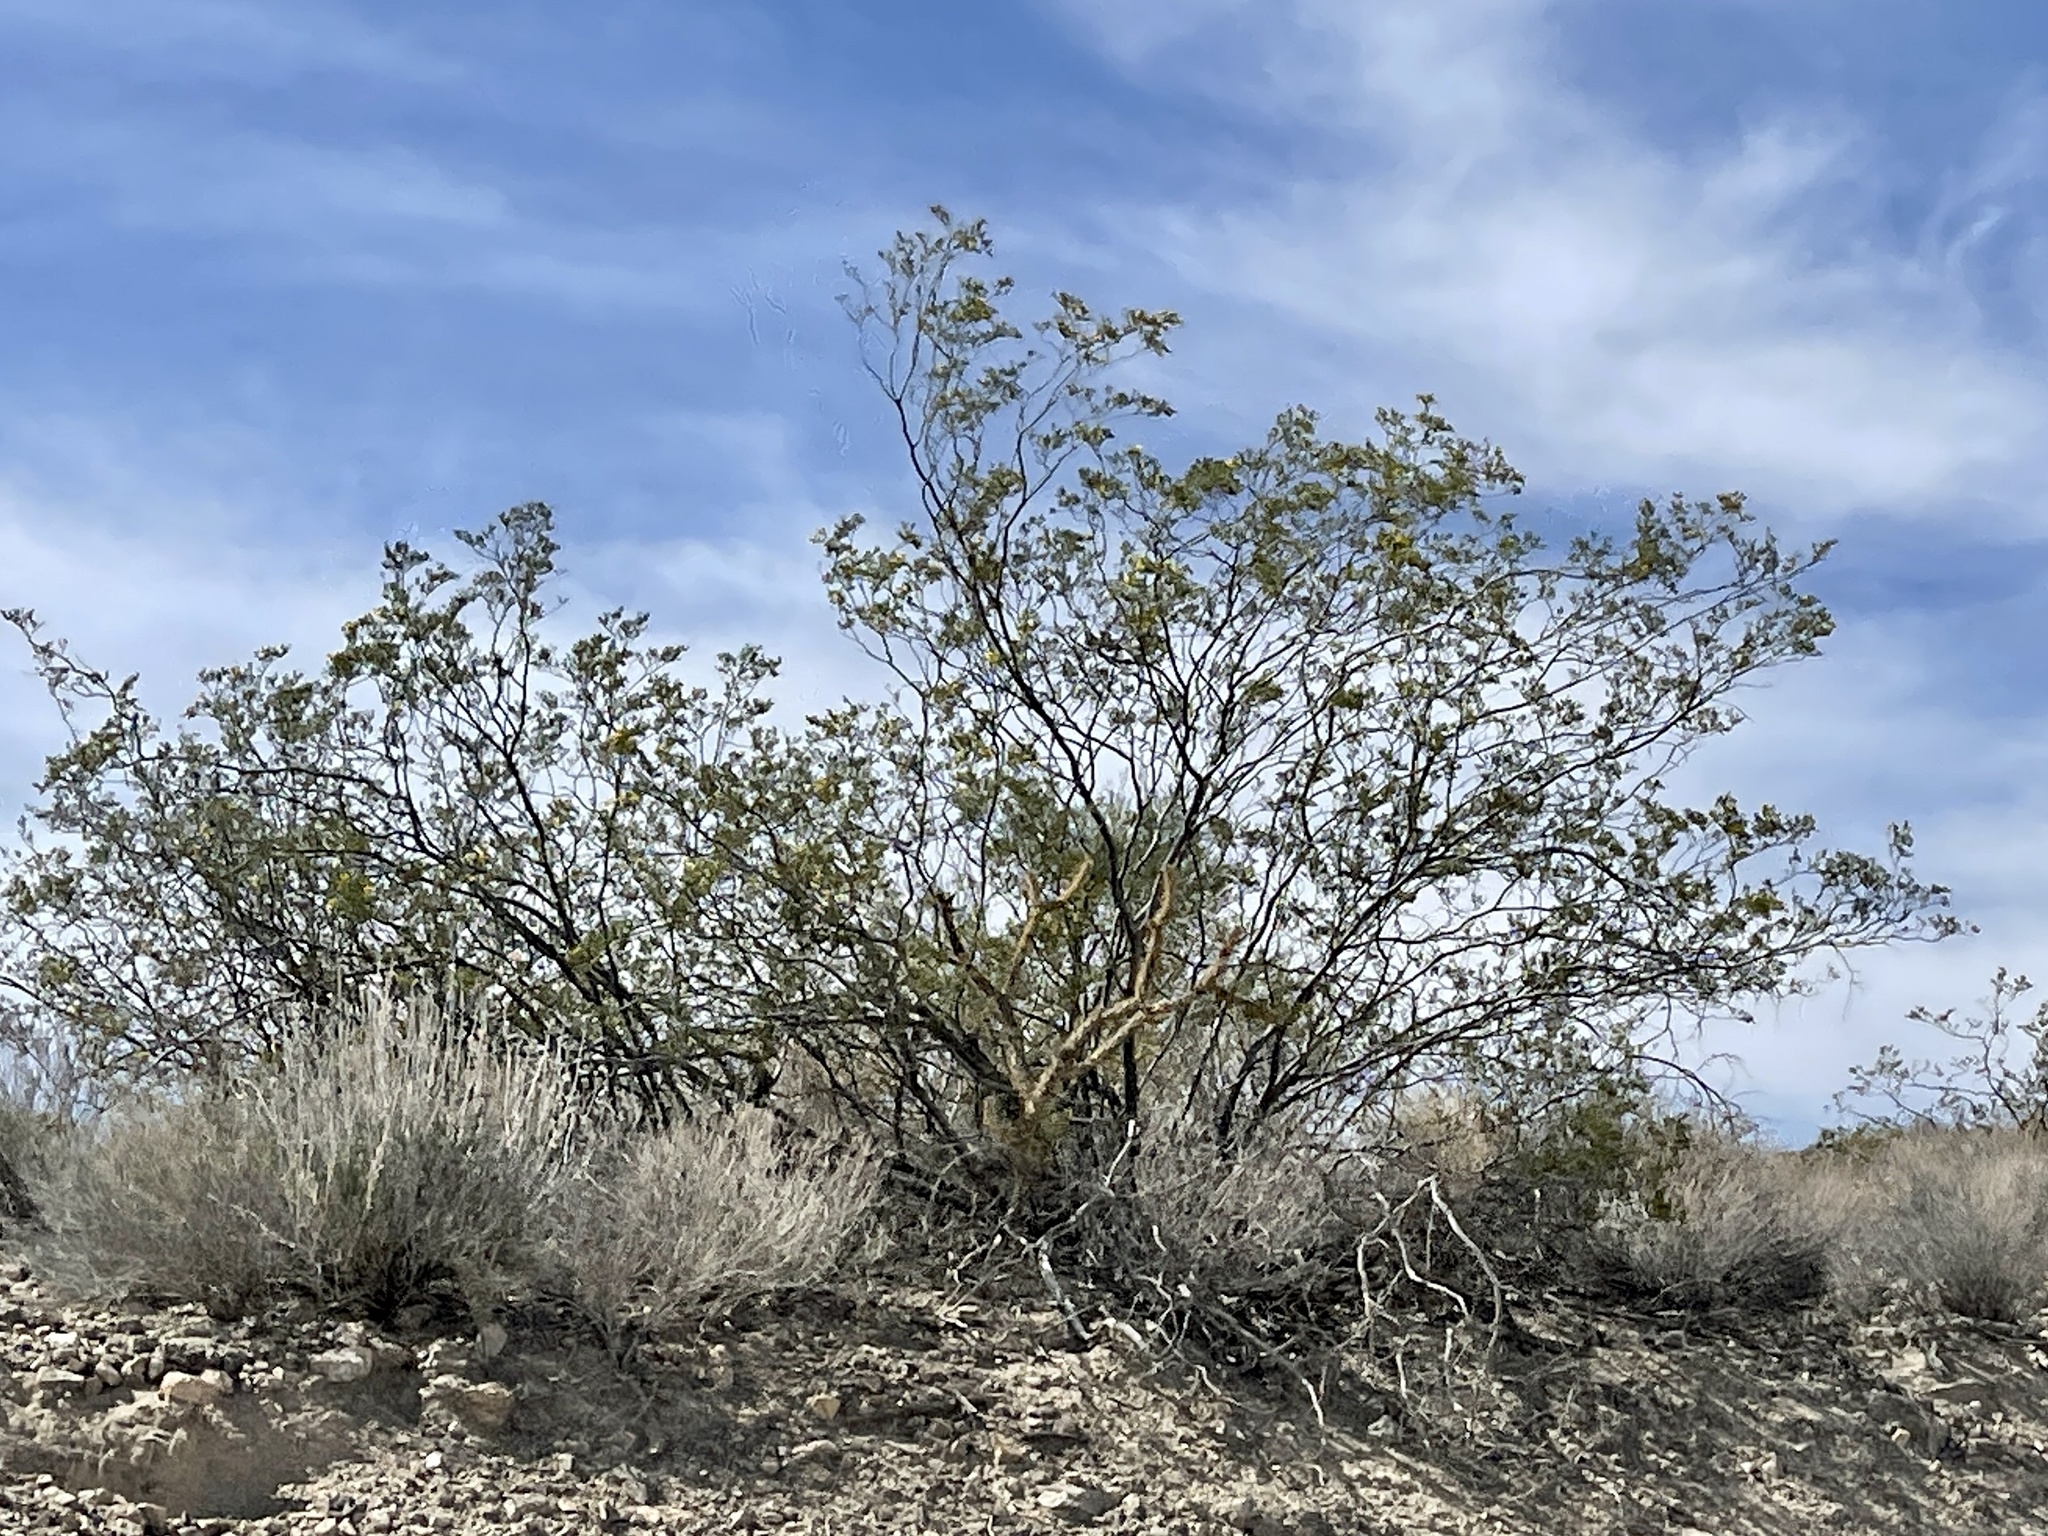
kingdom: Plantae
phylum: Tracheophyta
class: Magnoliopsida
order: Zygophyllales
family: Zygophyllaceae
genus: Larrea
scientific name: Larrea tridentata
